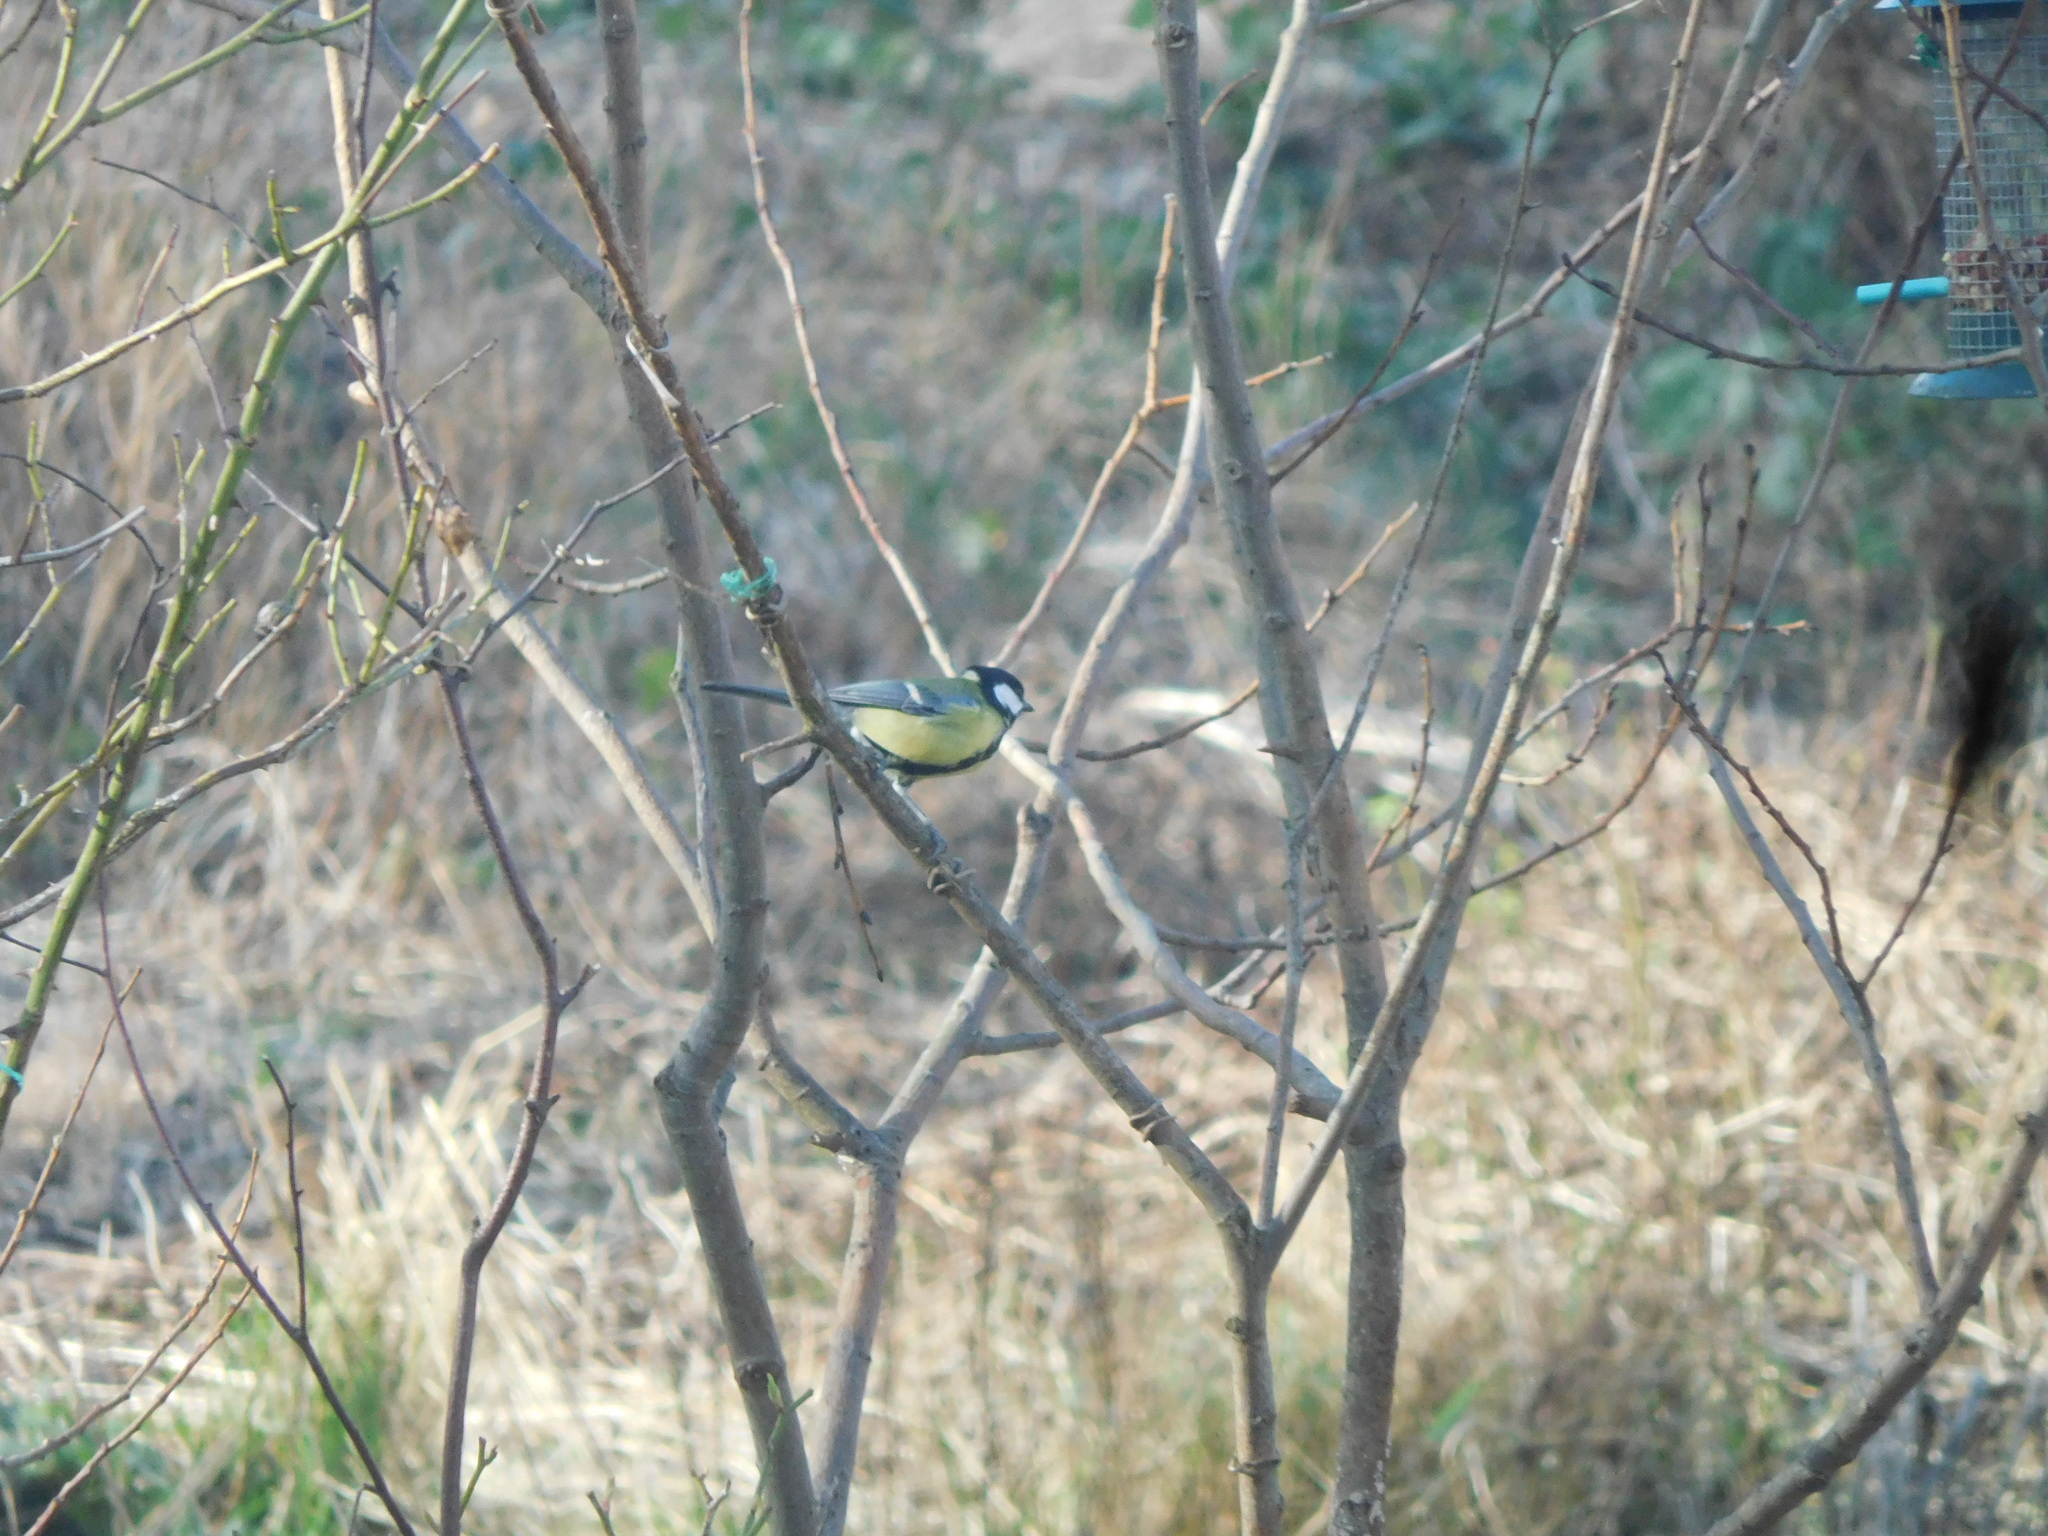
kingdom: Animalia
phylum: Chordata
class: Aves
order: Passeriformes
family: Paridae
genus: Parus
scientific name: Parus major
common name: Great tit
